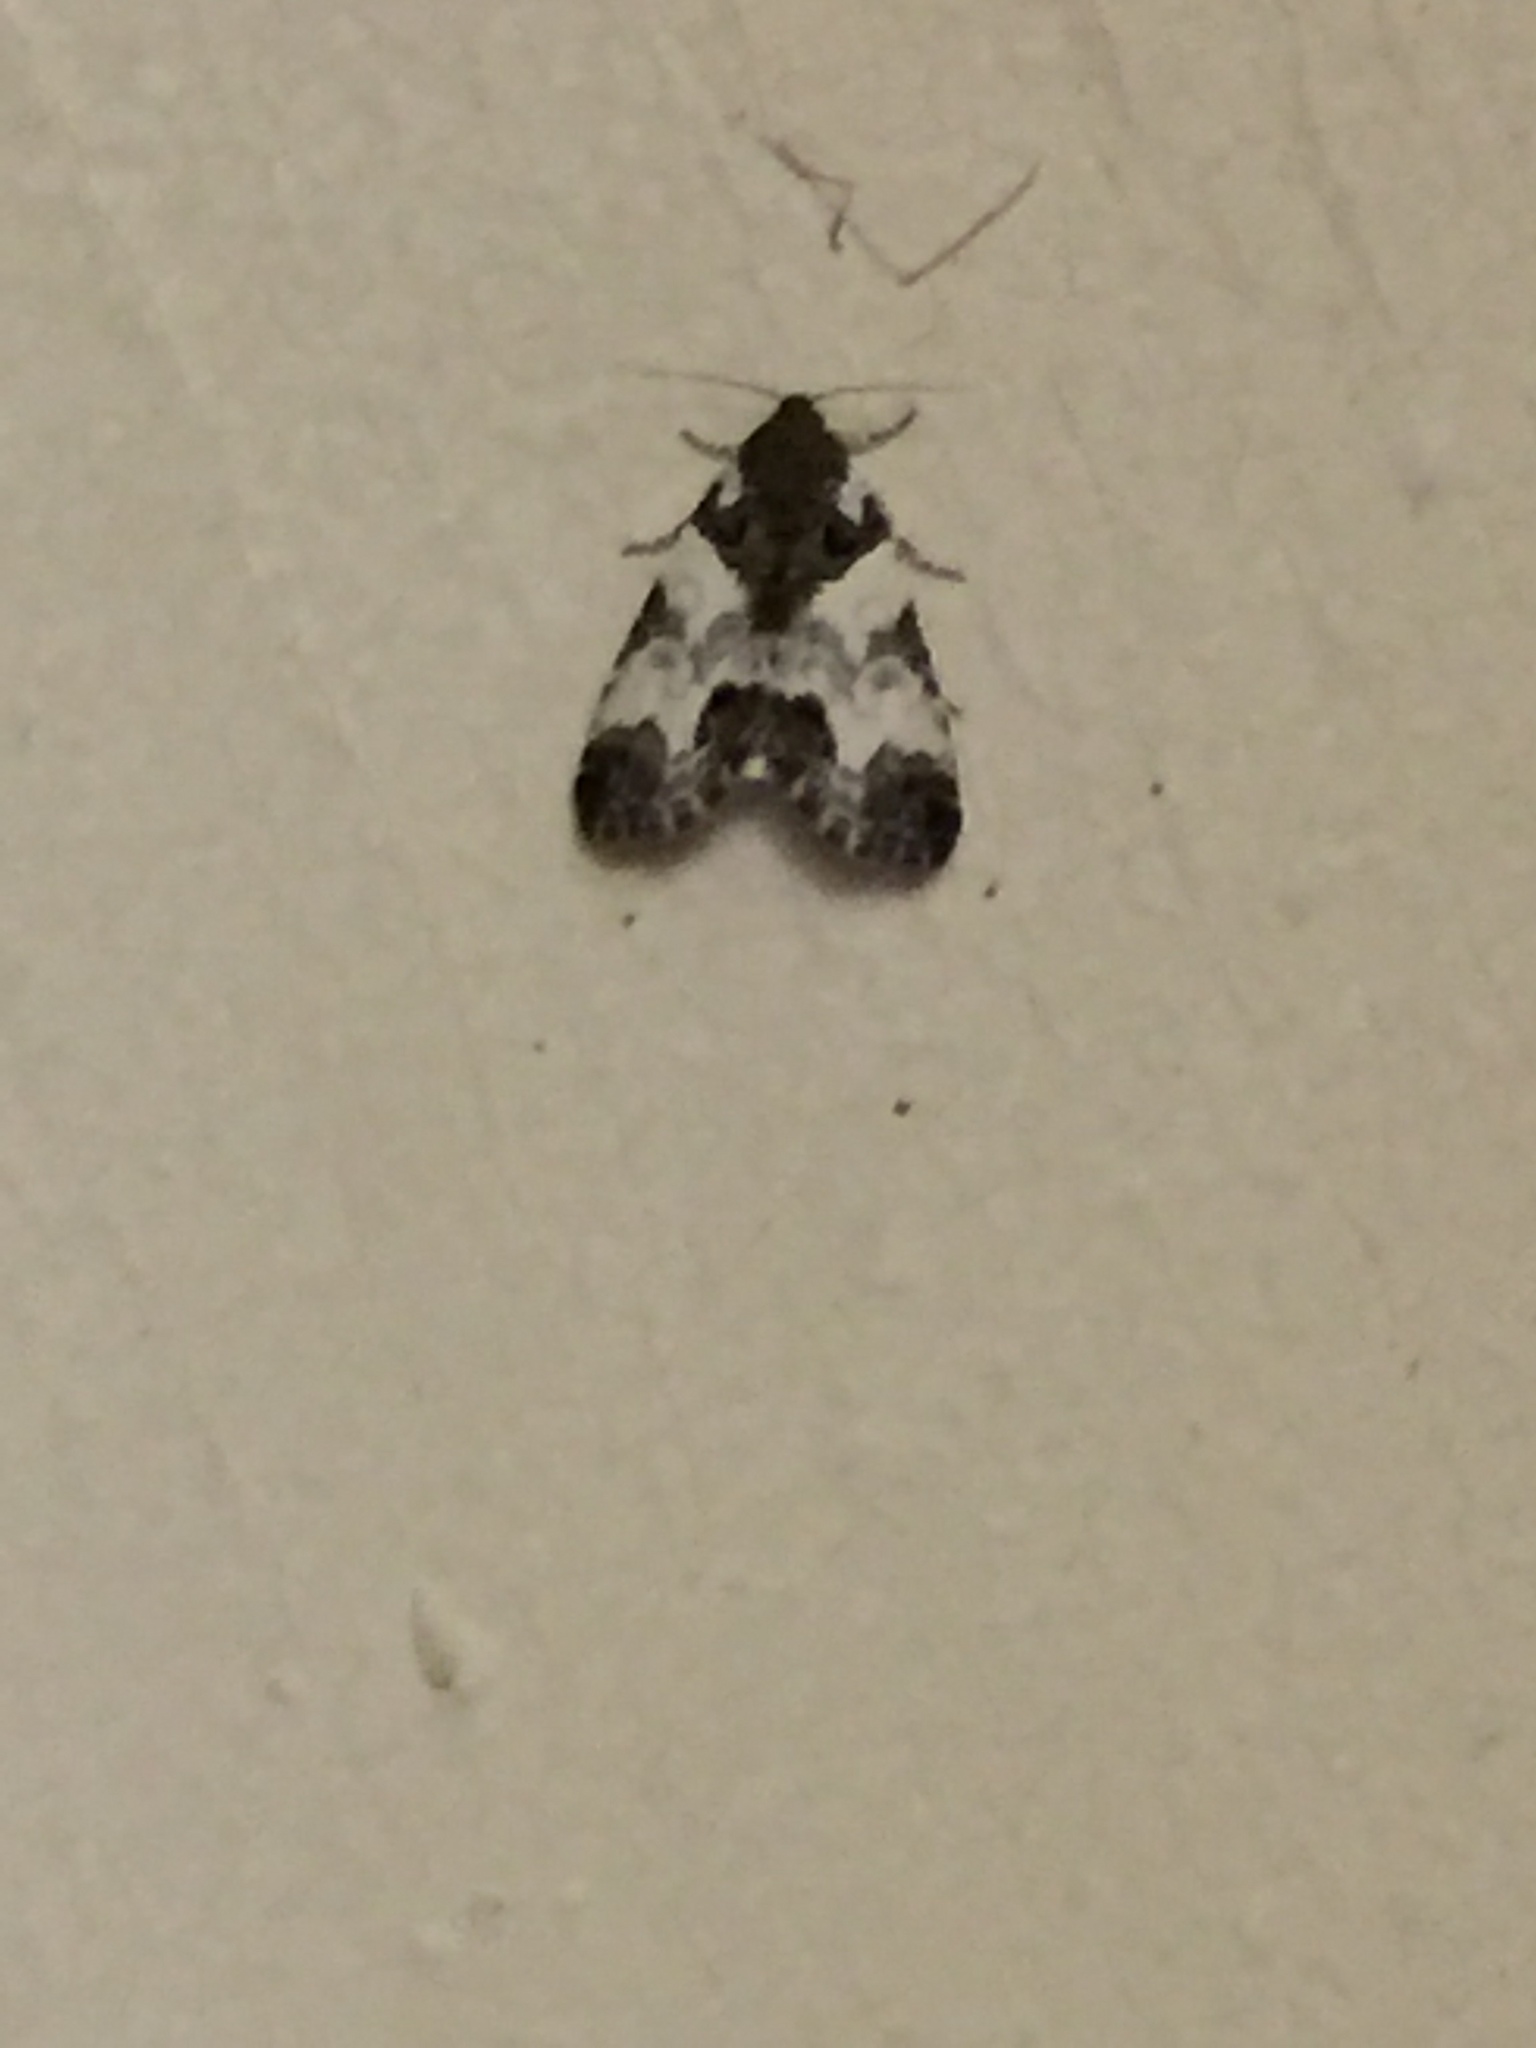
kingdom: Animalia
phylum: Arthropoda
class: Insecta
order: Lepidoptera
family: Noctuidae
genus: Cerma
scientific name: Cerma cerintha
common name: Tufted bird-dropping moth
